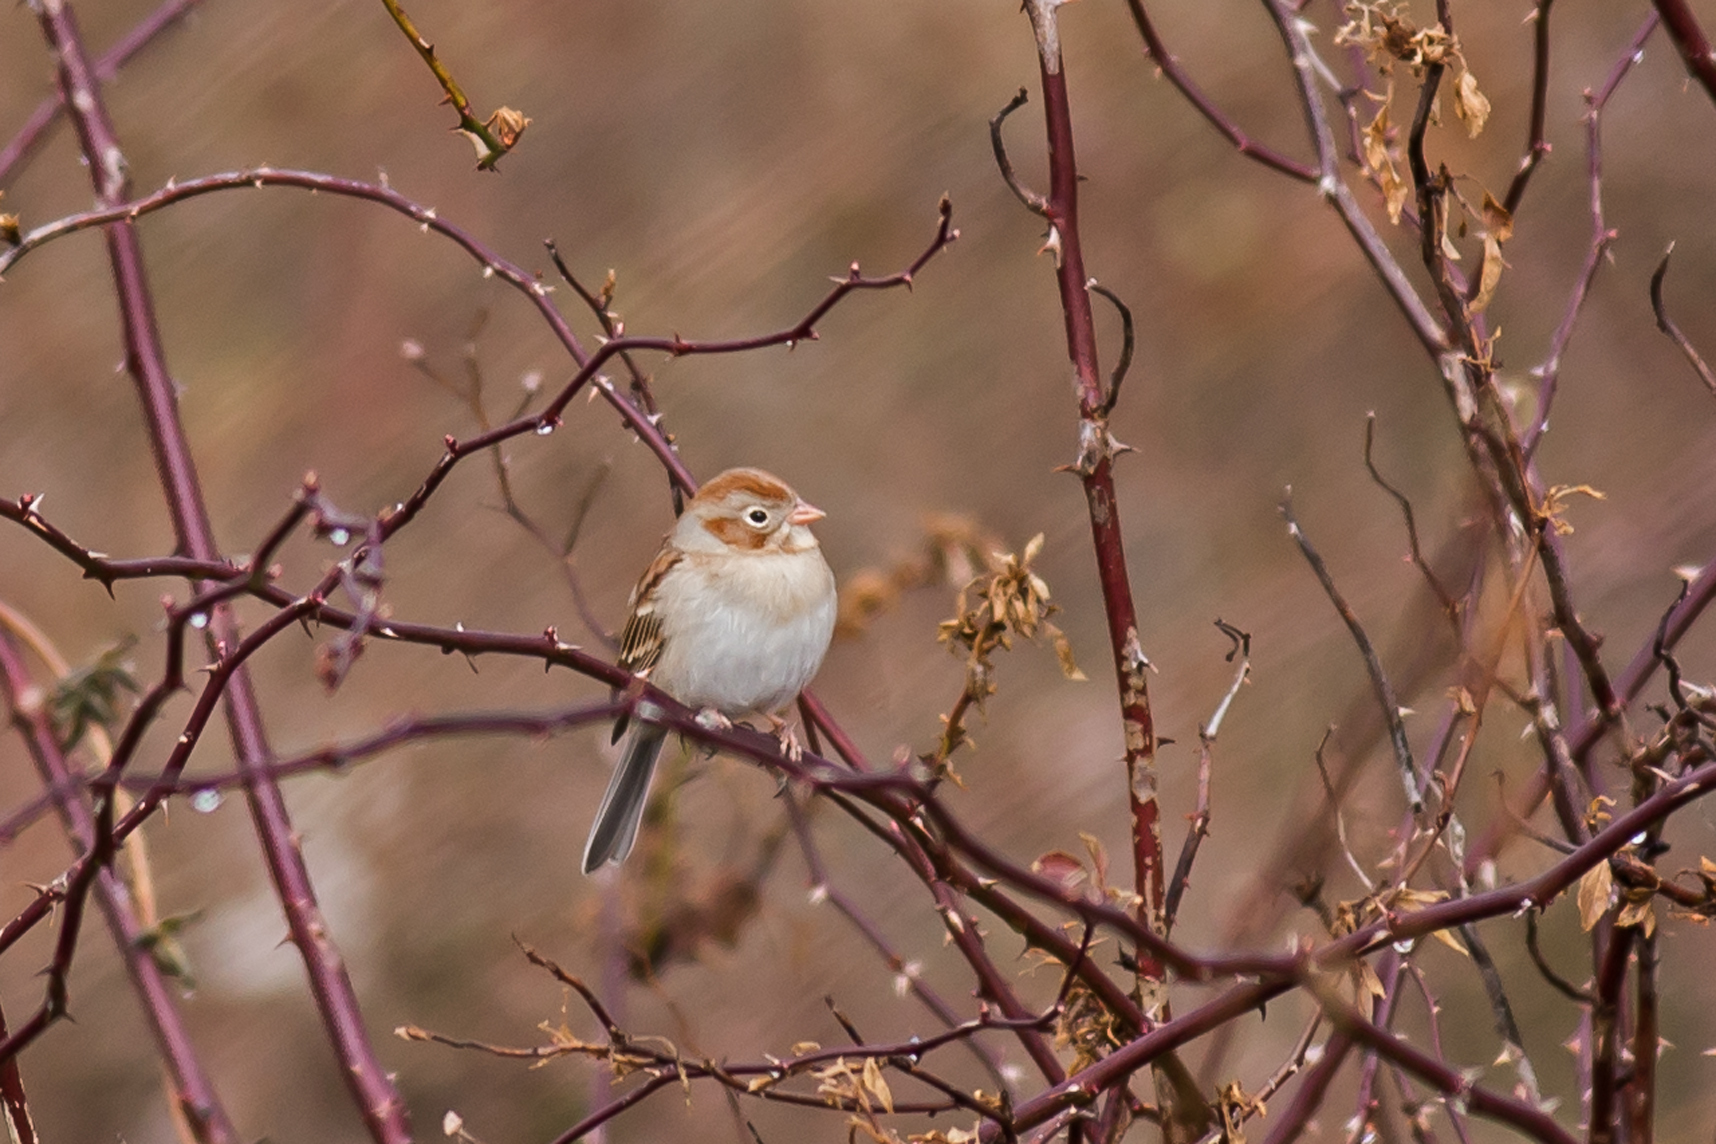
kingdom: Animalia
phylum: Chordata
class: Aves
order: Passeriformes
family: Passerellidae
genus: Spizella
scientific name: Spizella pusilla
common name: Field sparrow
